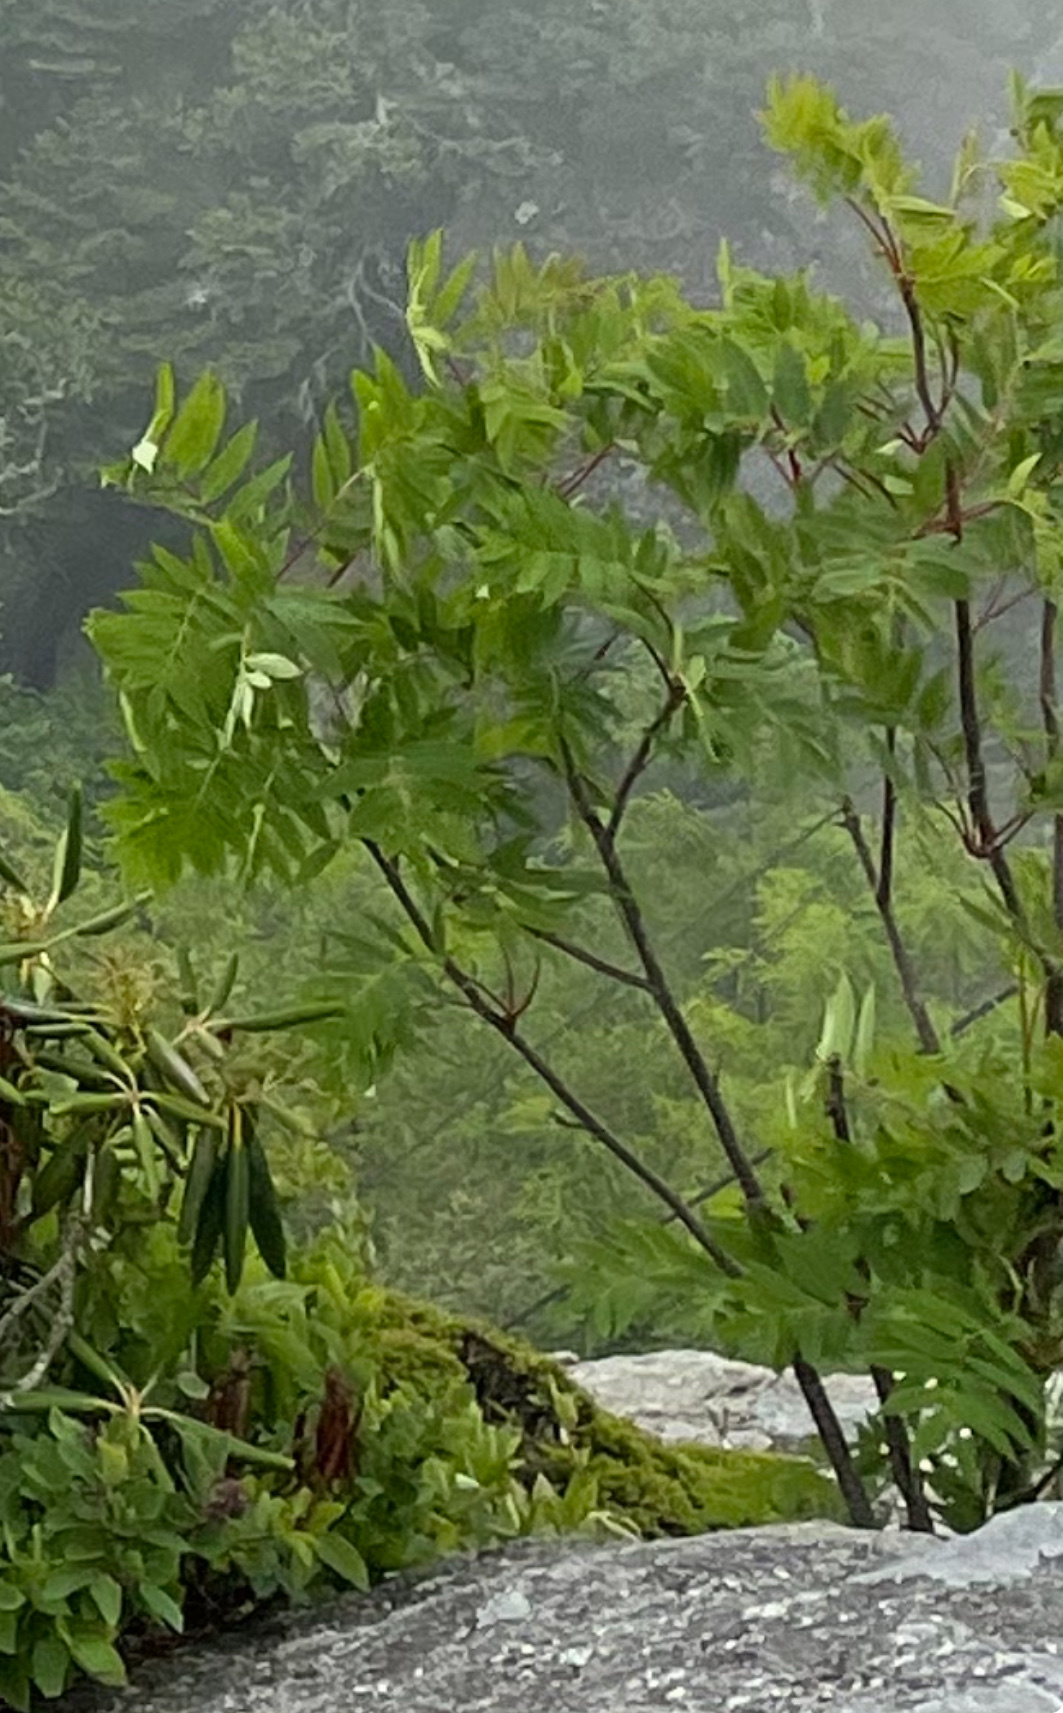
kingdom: Plantae
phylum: Tracheophyta
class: Magnoliopsida
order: Rosales
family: Rosaceae
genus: Sorbus
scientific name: Sorbus americana
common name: American mountain-ash
